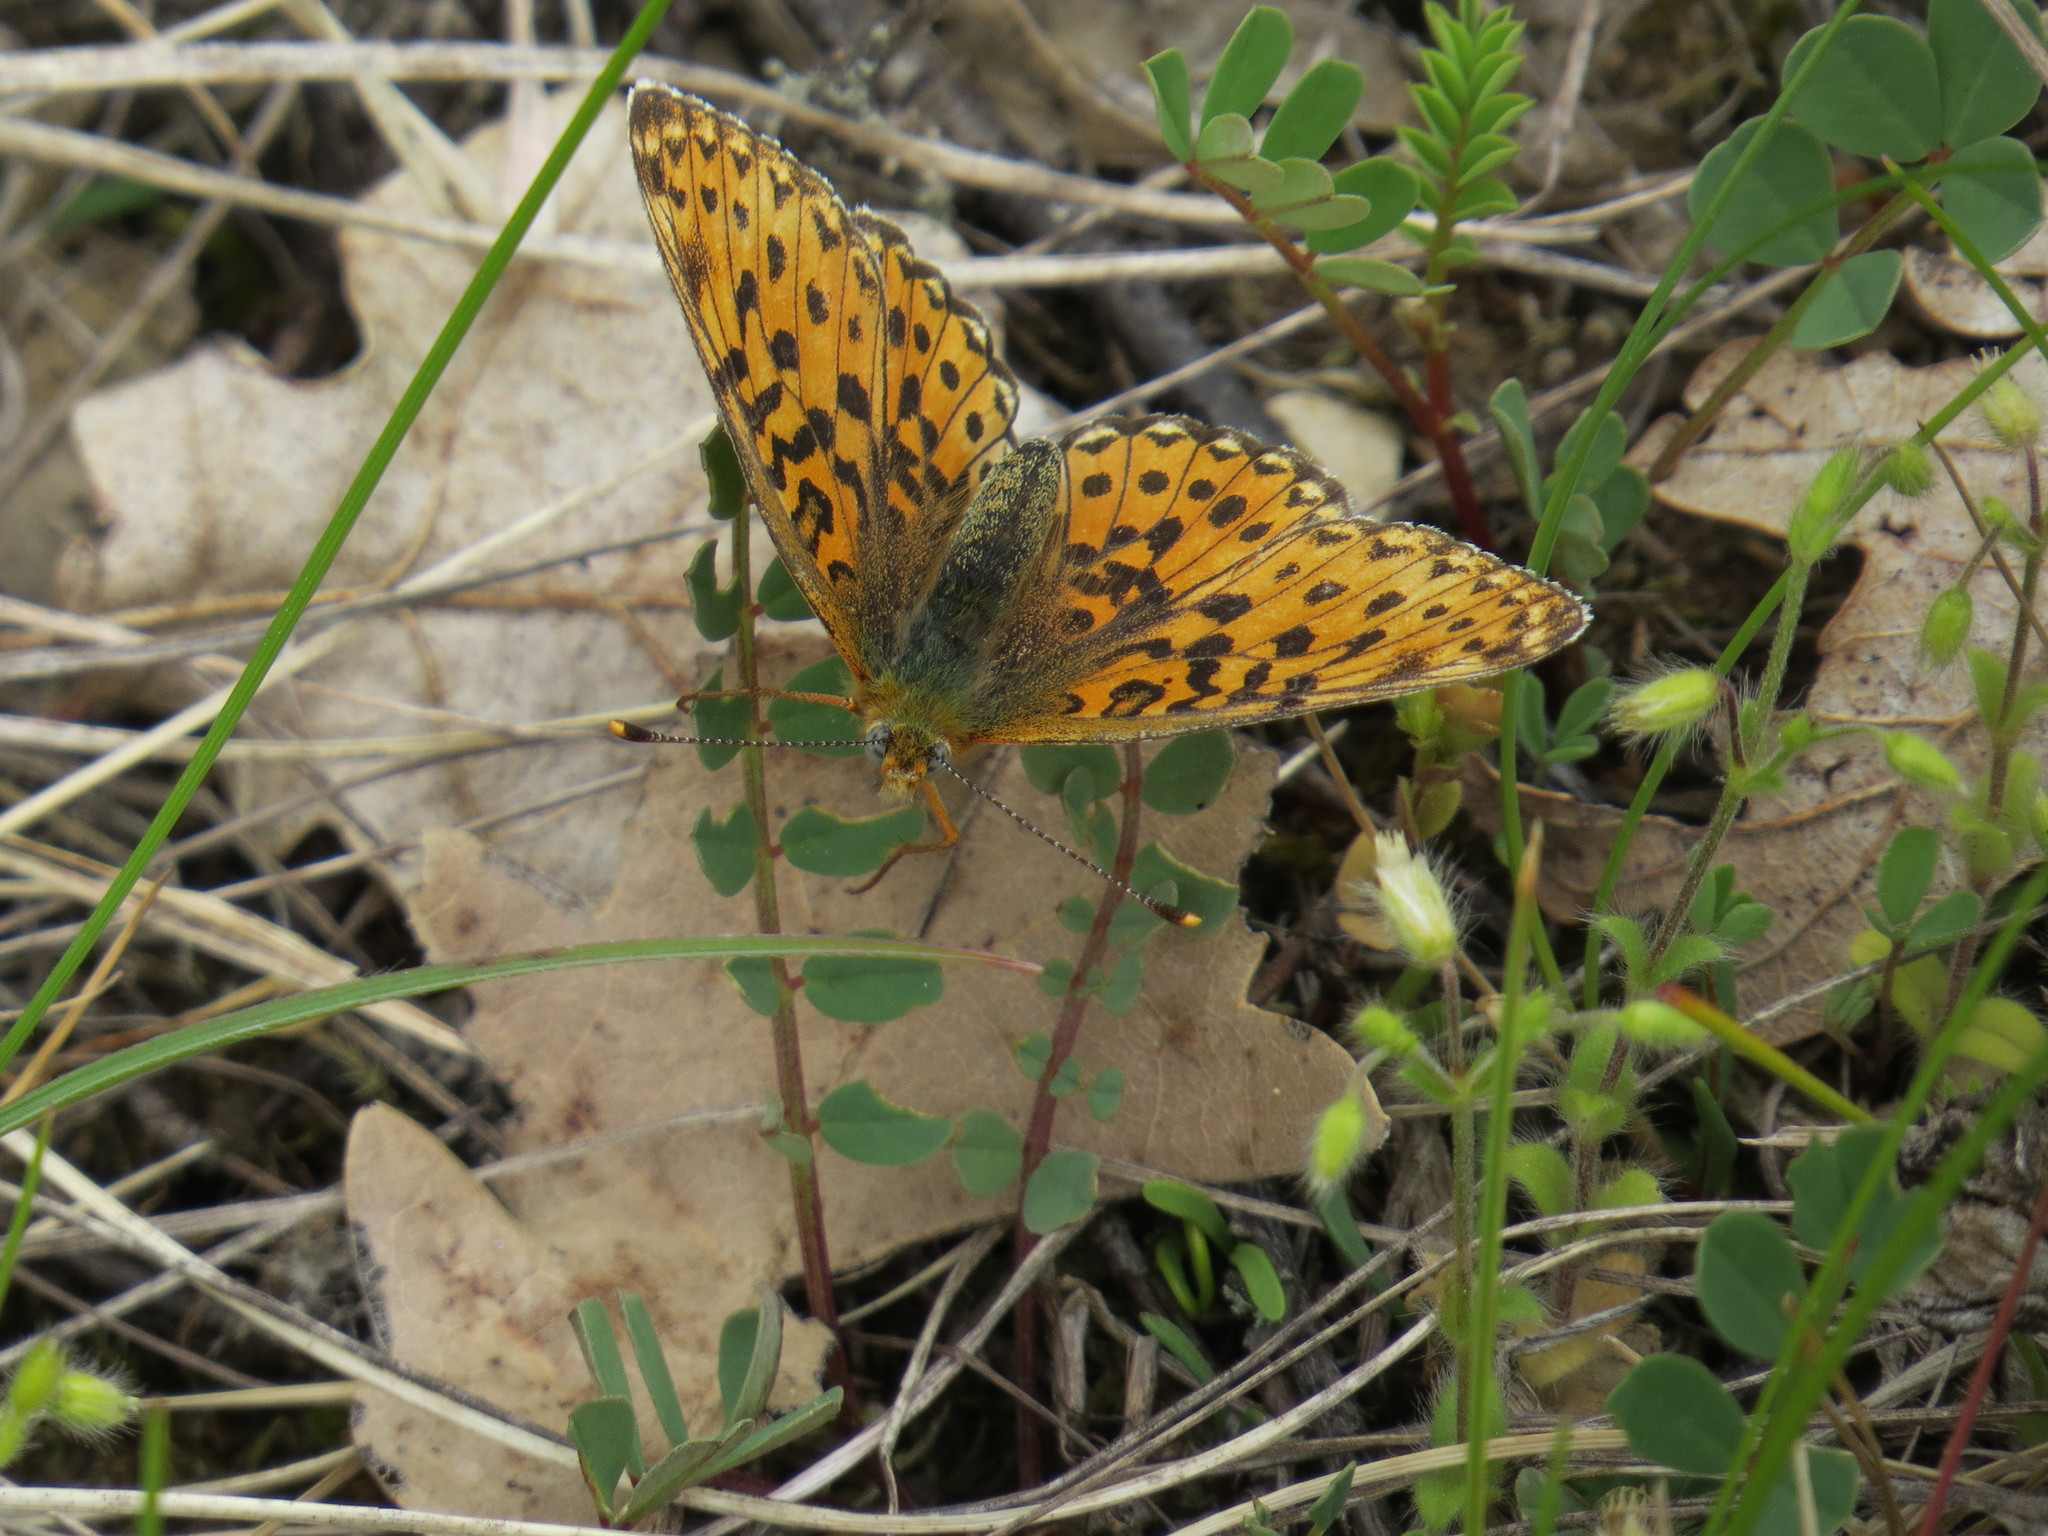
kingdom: Animalia
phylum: Arthropoda
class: Insecta
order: Lepidoptera
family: Nymphalidae
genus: Clossiana
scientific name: Clossiana euphrosyne
